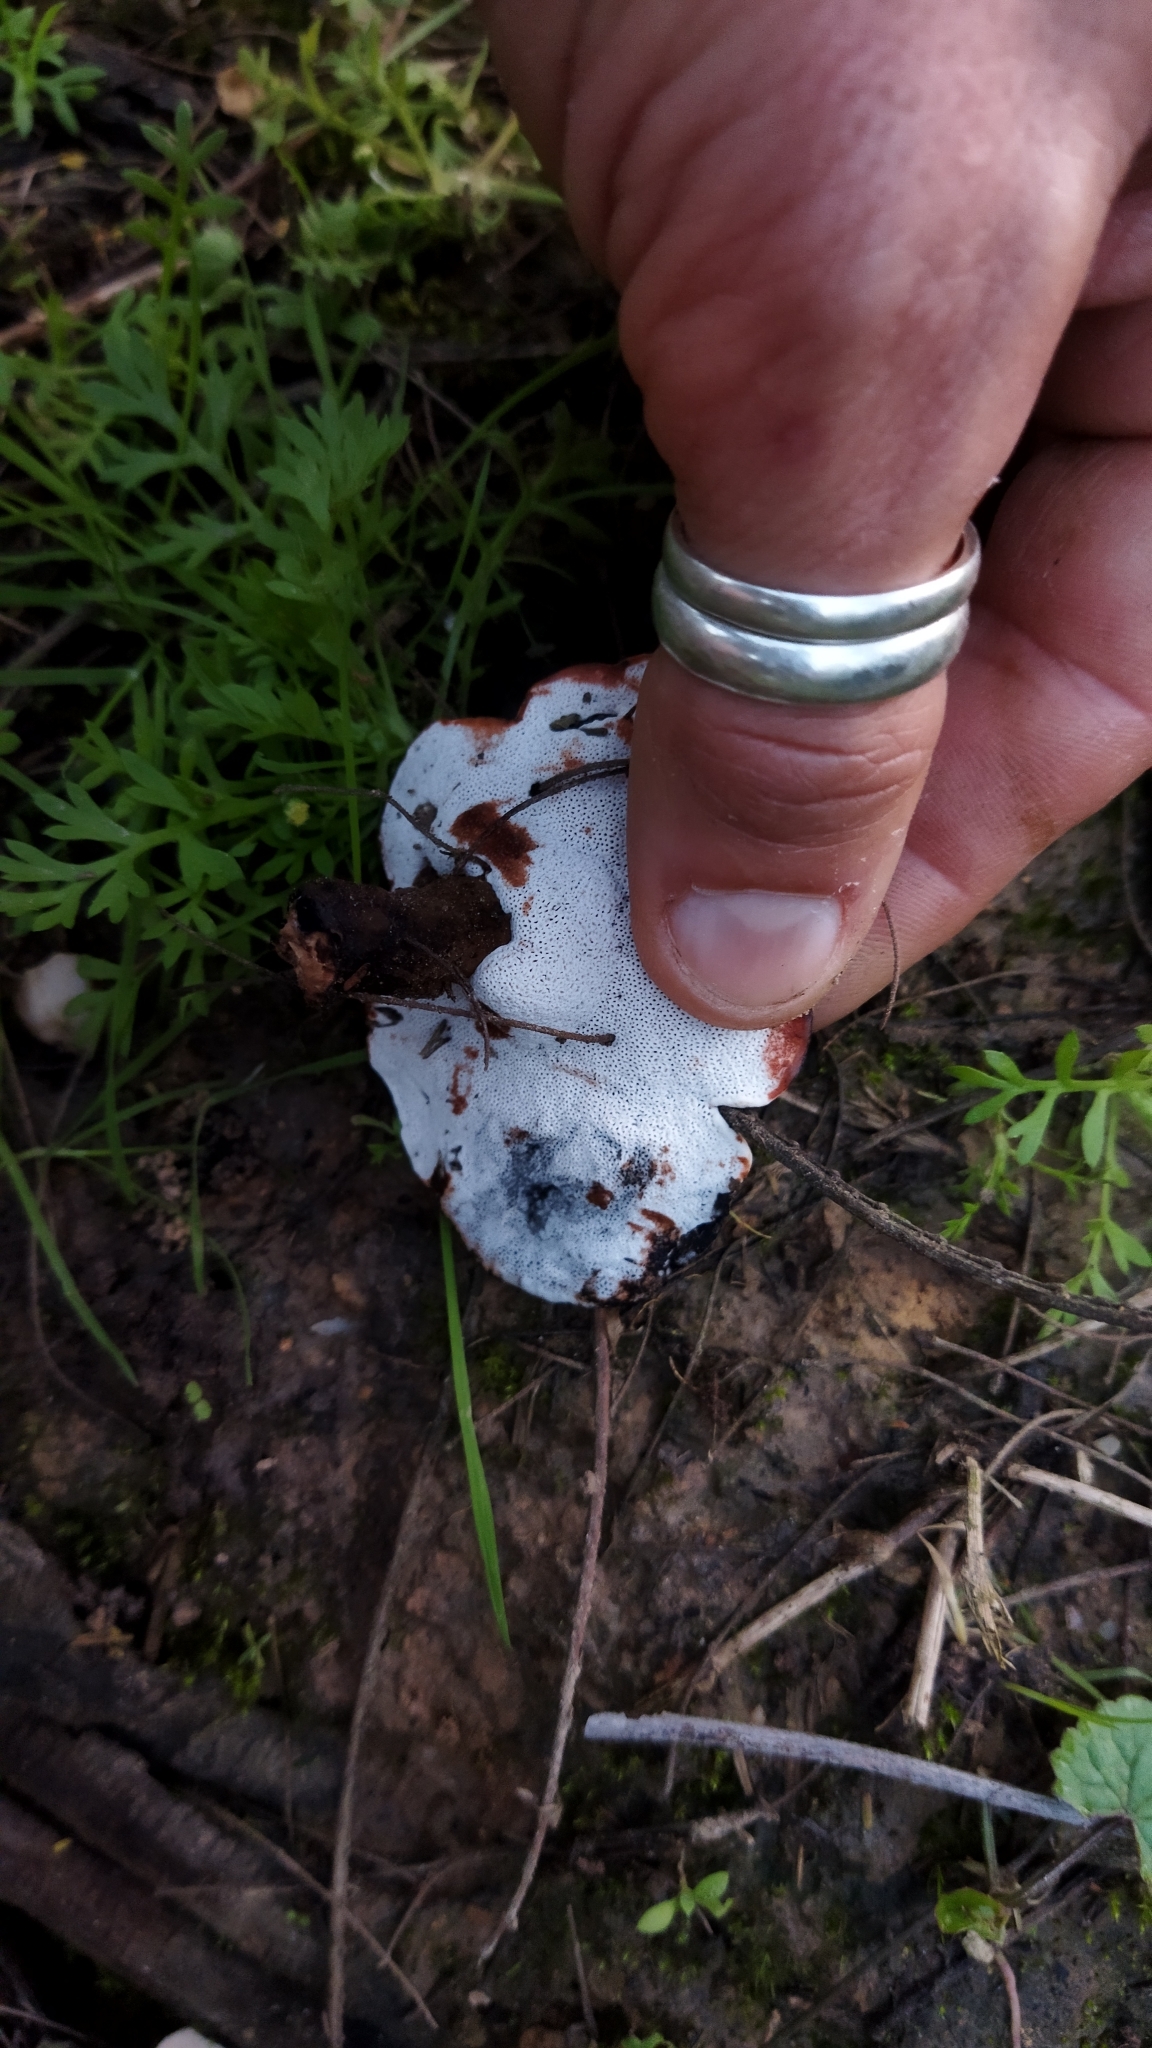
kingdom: Fungi
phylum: Basidiomycota
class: Agaricomycetes
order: Polyporales
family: Ganodermataceae
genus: Sanguinoderma
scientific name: Sanguinoderma rude
